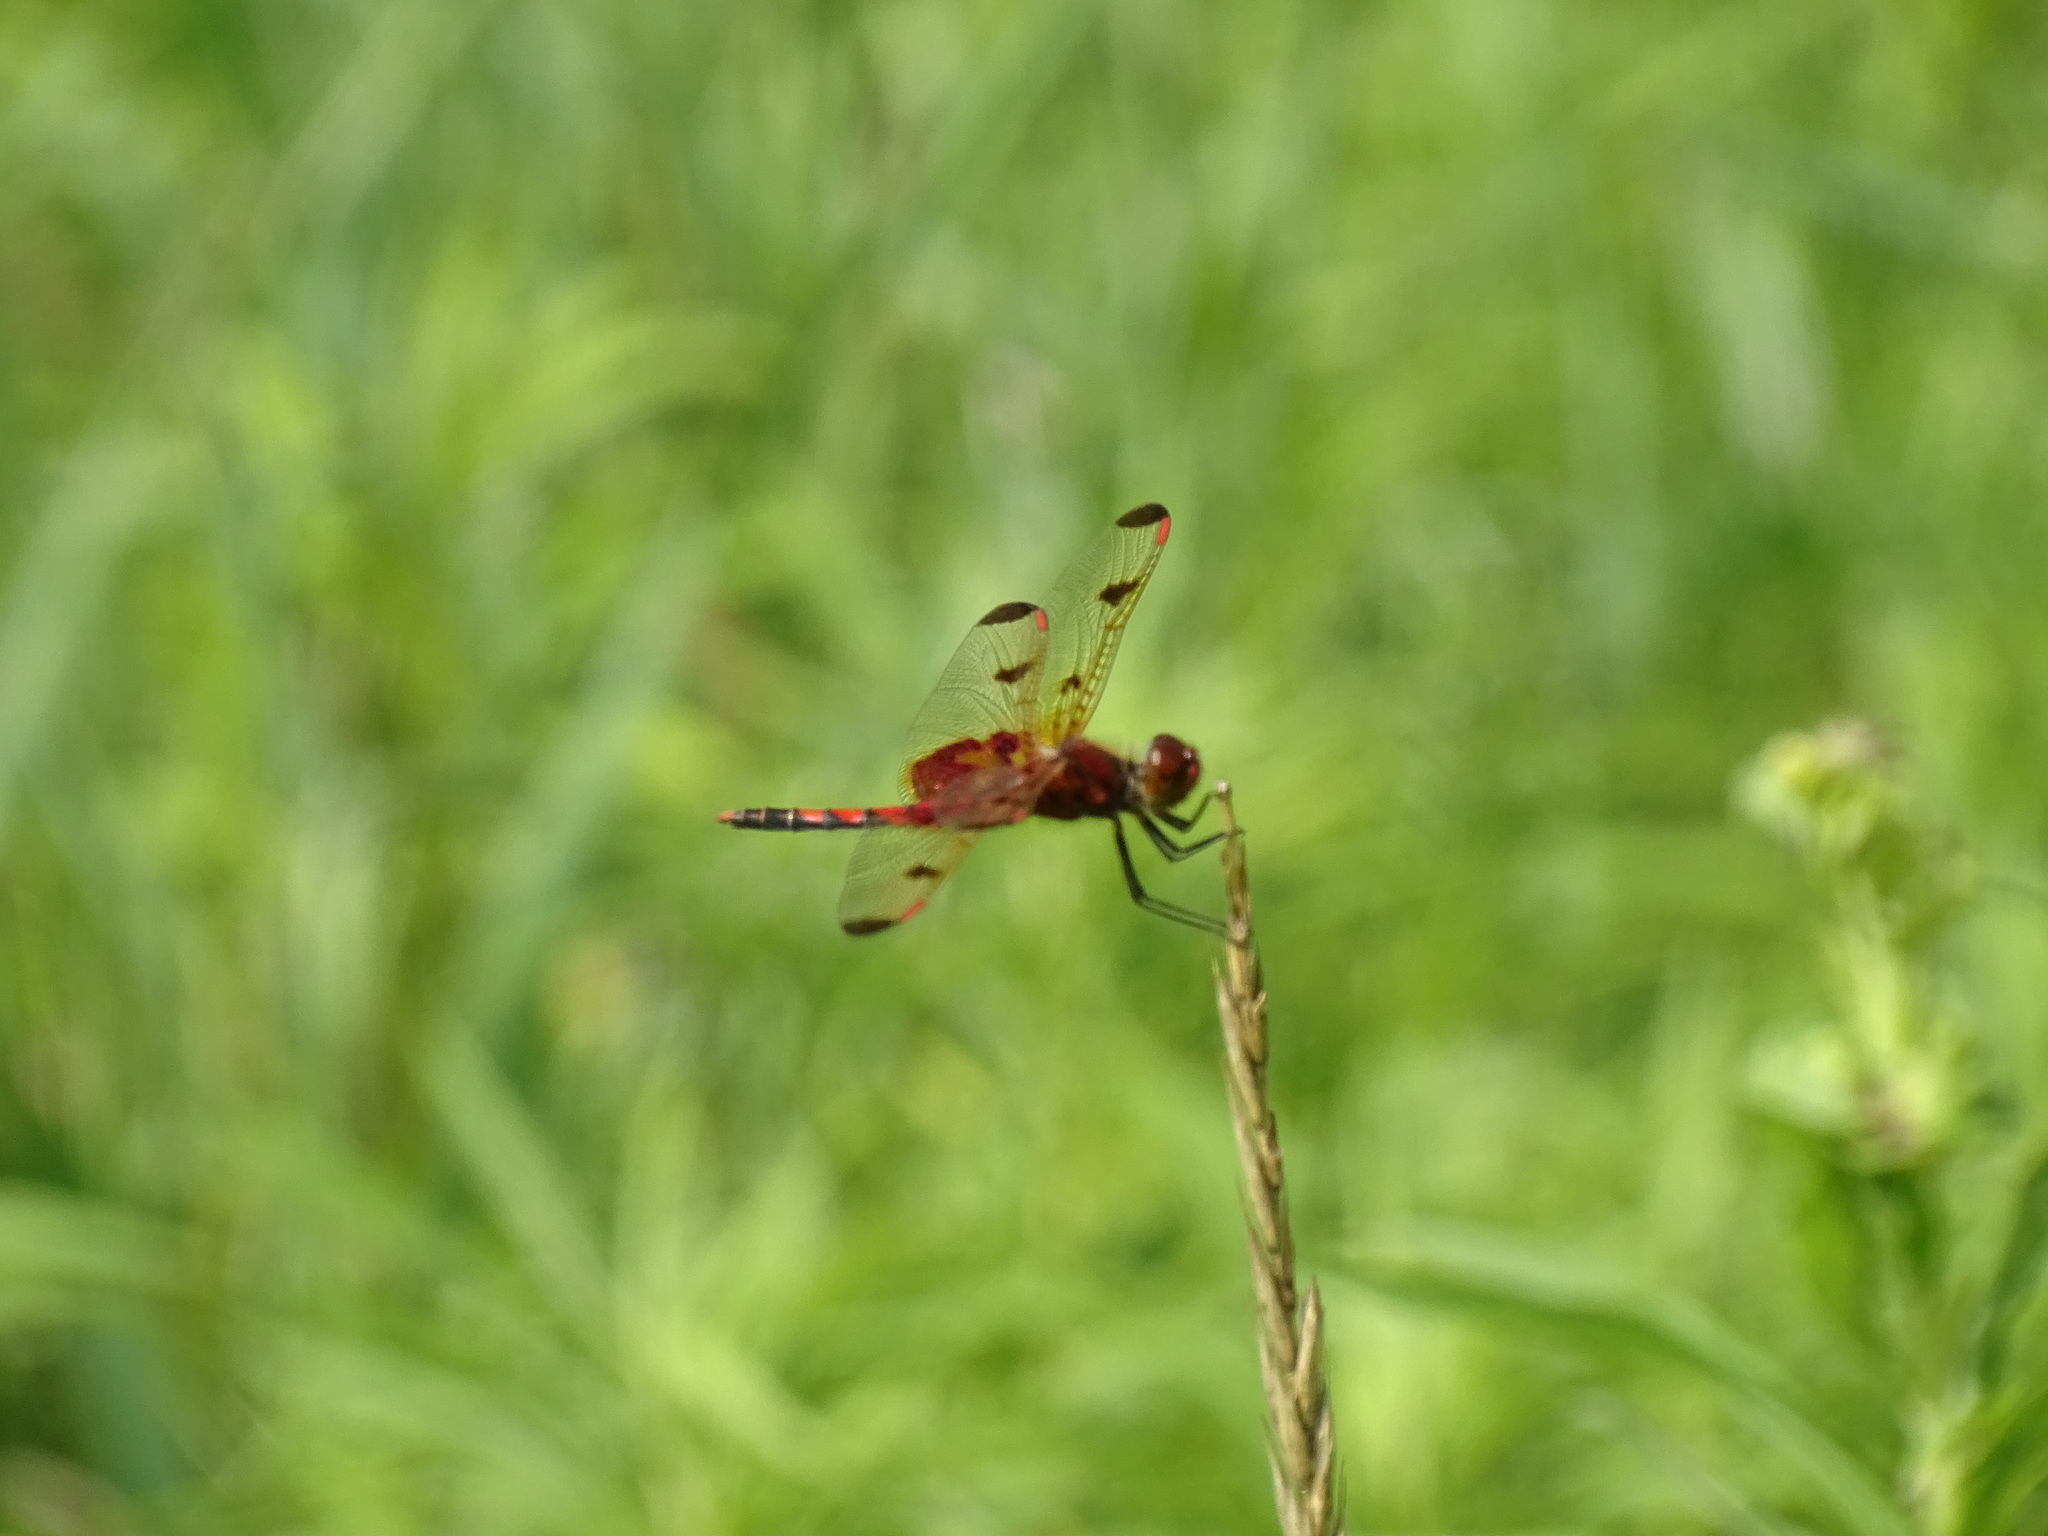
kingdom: Animalia
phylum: Arthropoda
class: Insecta
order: Odonata
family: Libellulidae
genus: Celithemis
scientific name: Celithemis elisa
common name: Calico pennant
